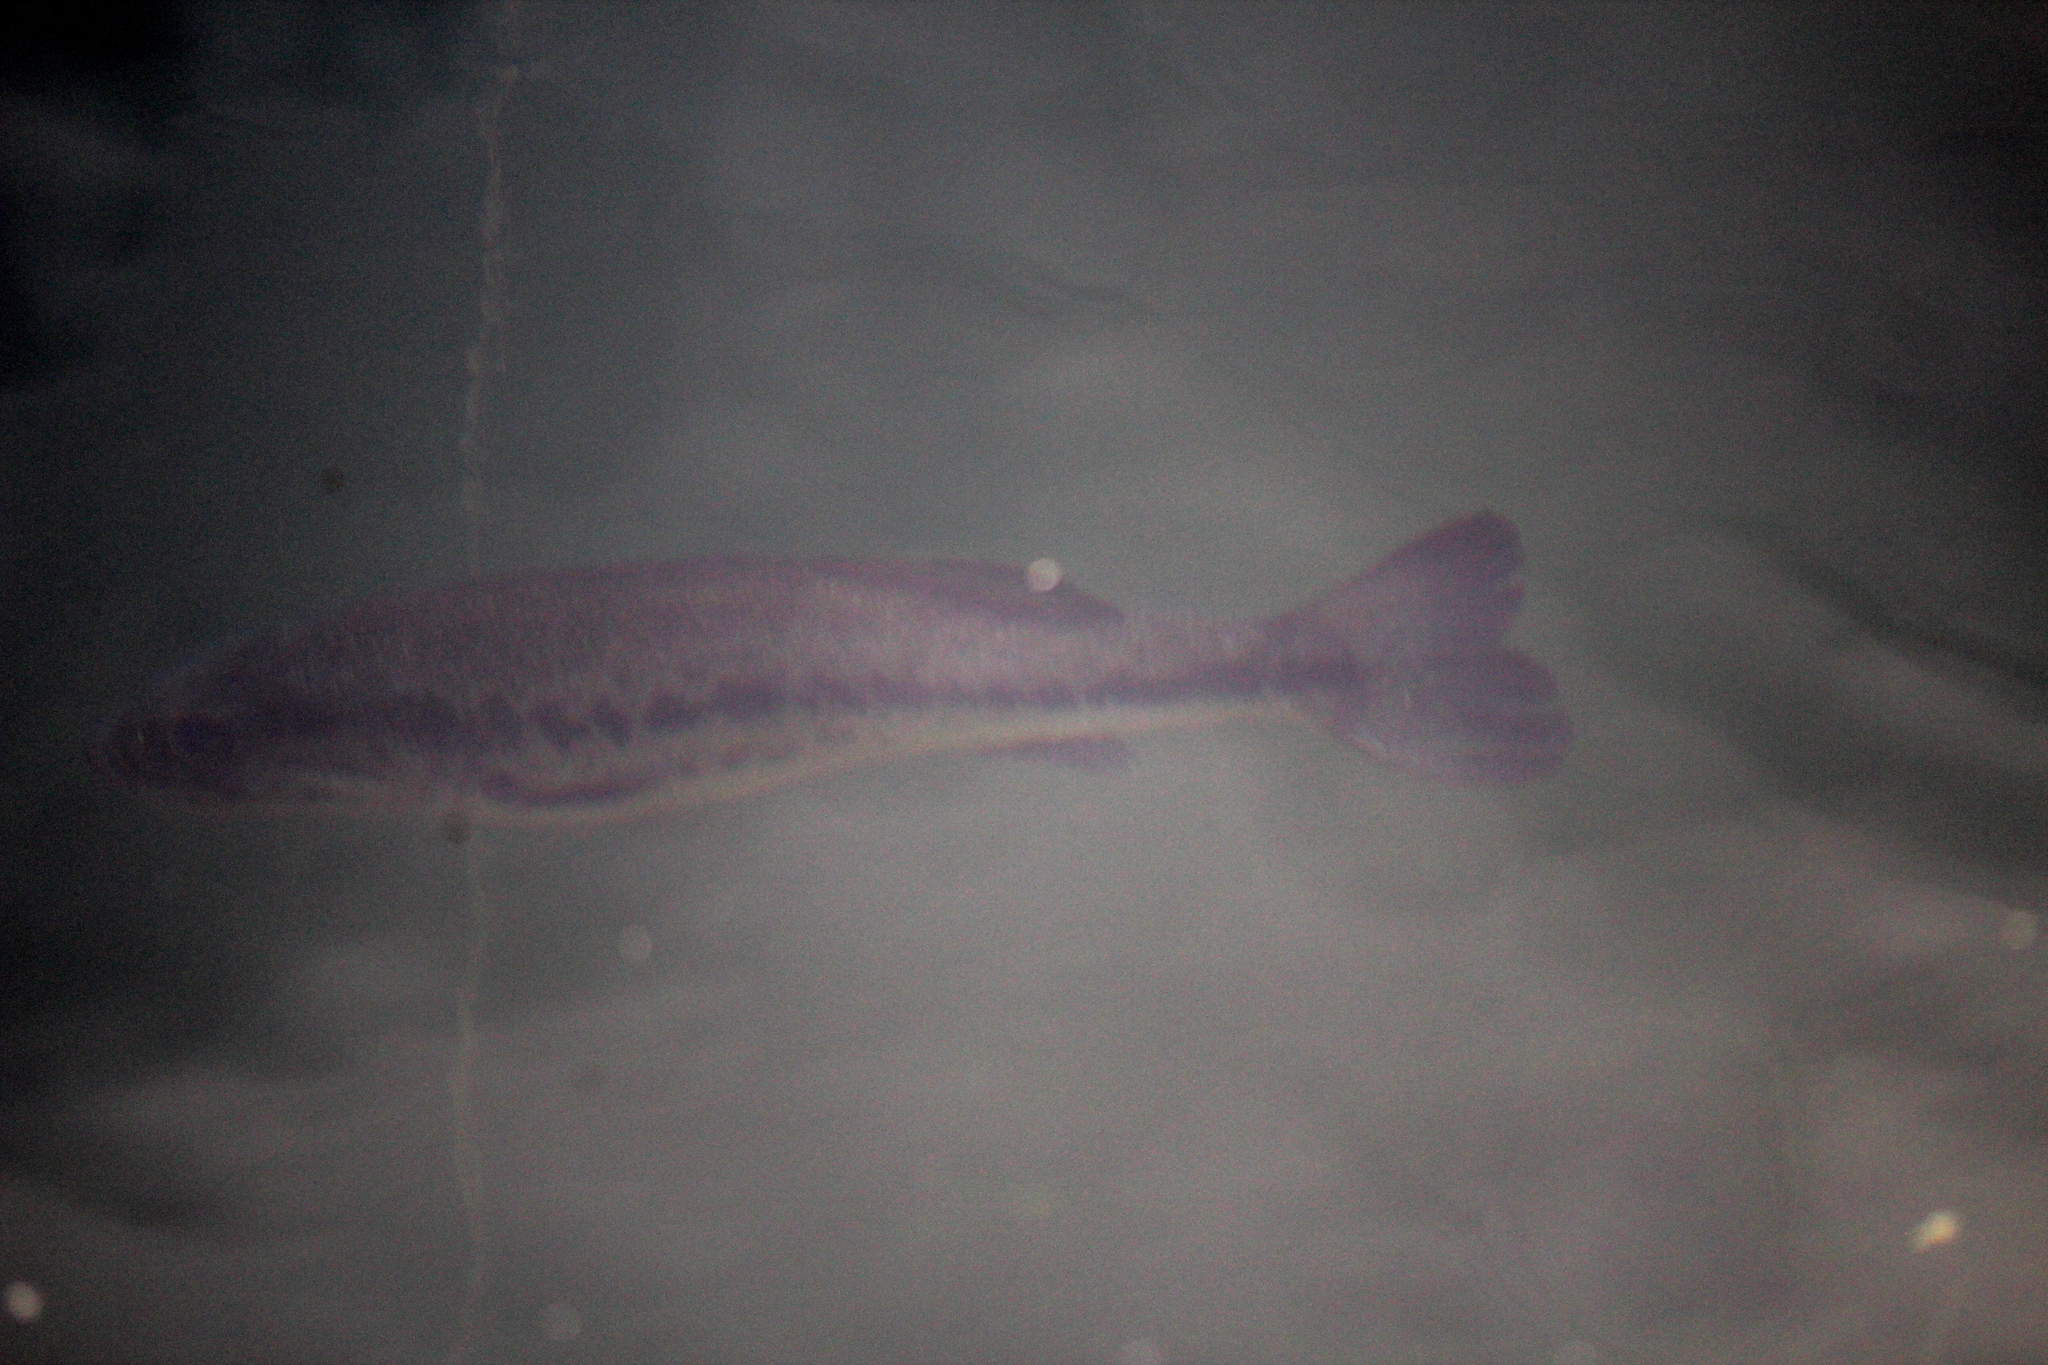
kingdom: Animalia
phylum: Chordata
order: Perciformes
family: Centrarchidae
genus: Micropterus
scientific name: Micropterus
